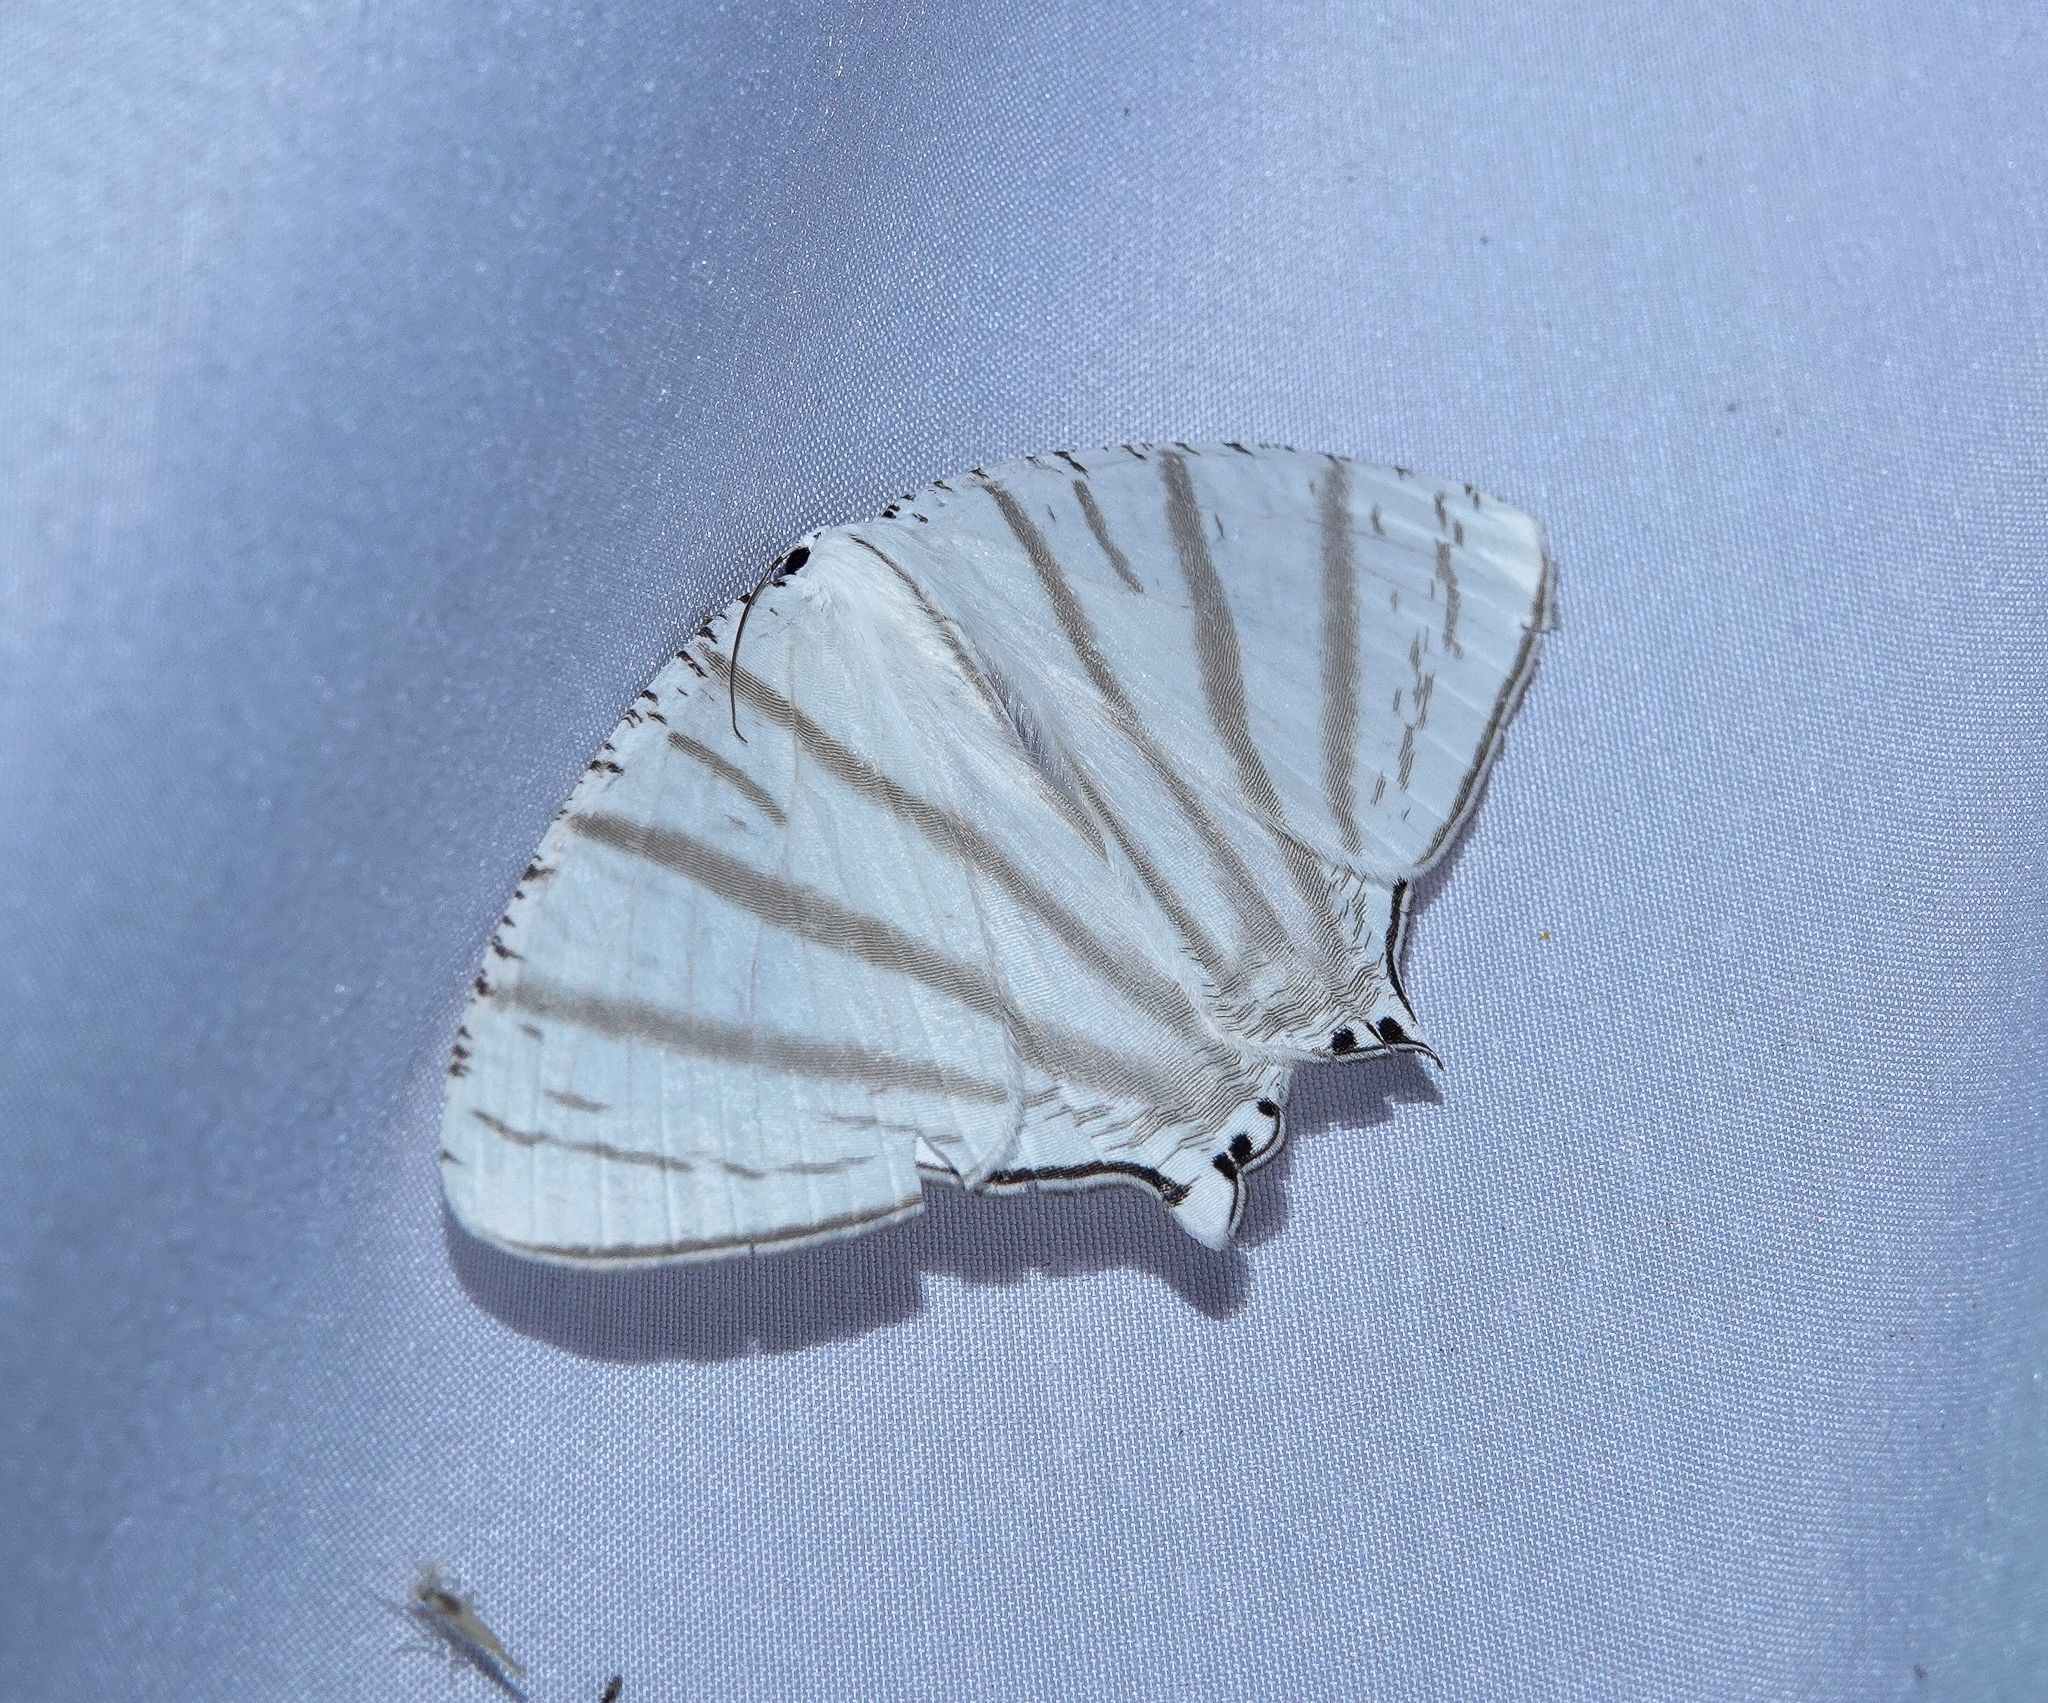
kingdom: Animalia
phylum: Arthropoda
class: Insecta
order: Lepidoptera
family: Uraniidae
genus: Urapteroides
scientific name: Urapteroides astheniata
